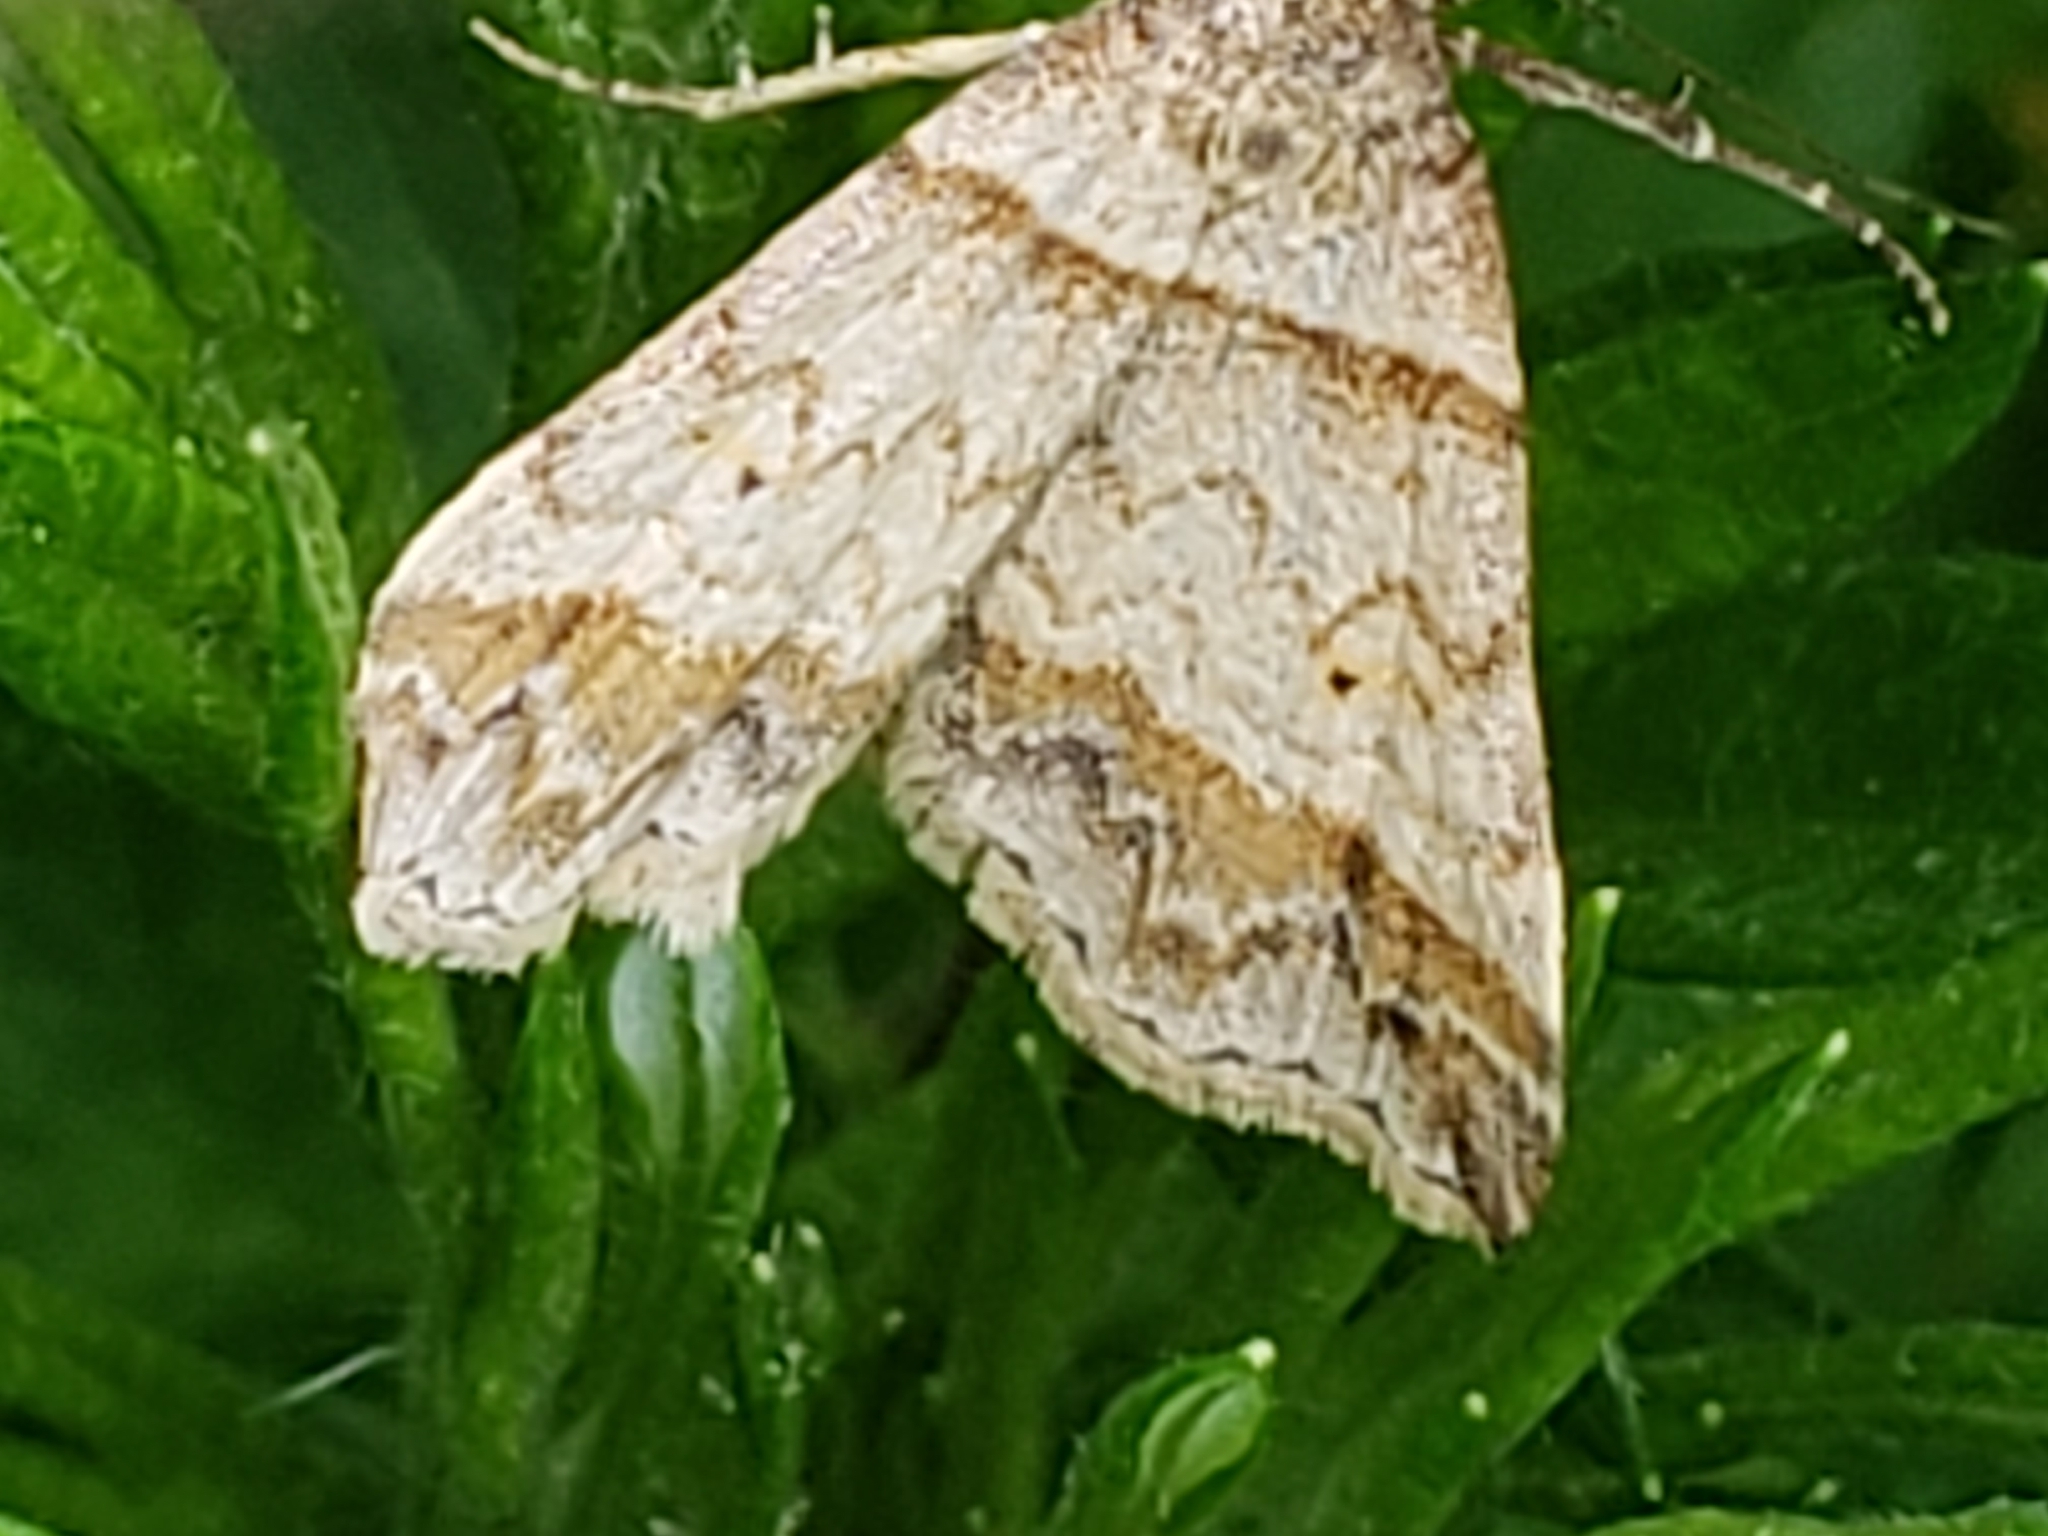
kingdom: Animalia
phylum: Arthropoda
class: Insecta
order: Lepidoptera
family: Erebidae
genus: Phaeolita
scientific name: Phaeolita pyramusalis
